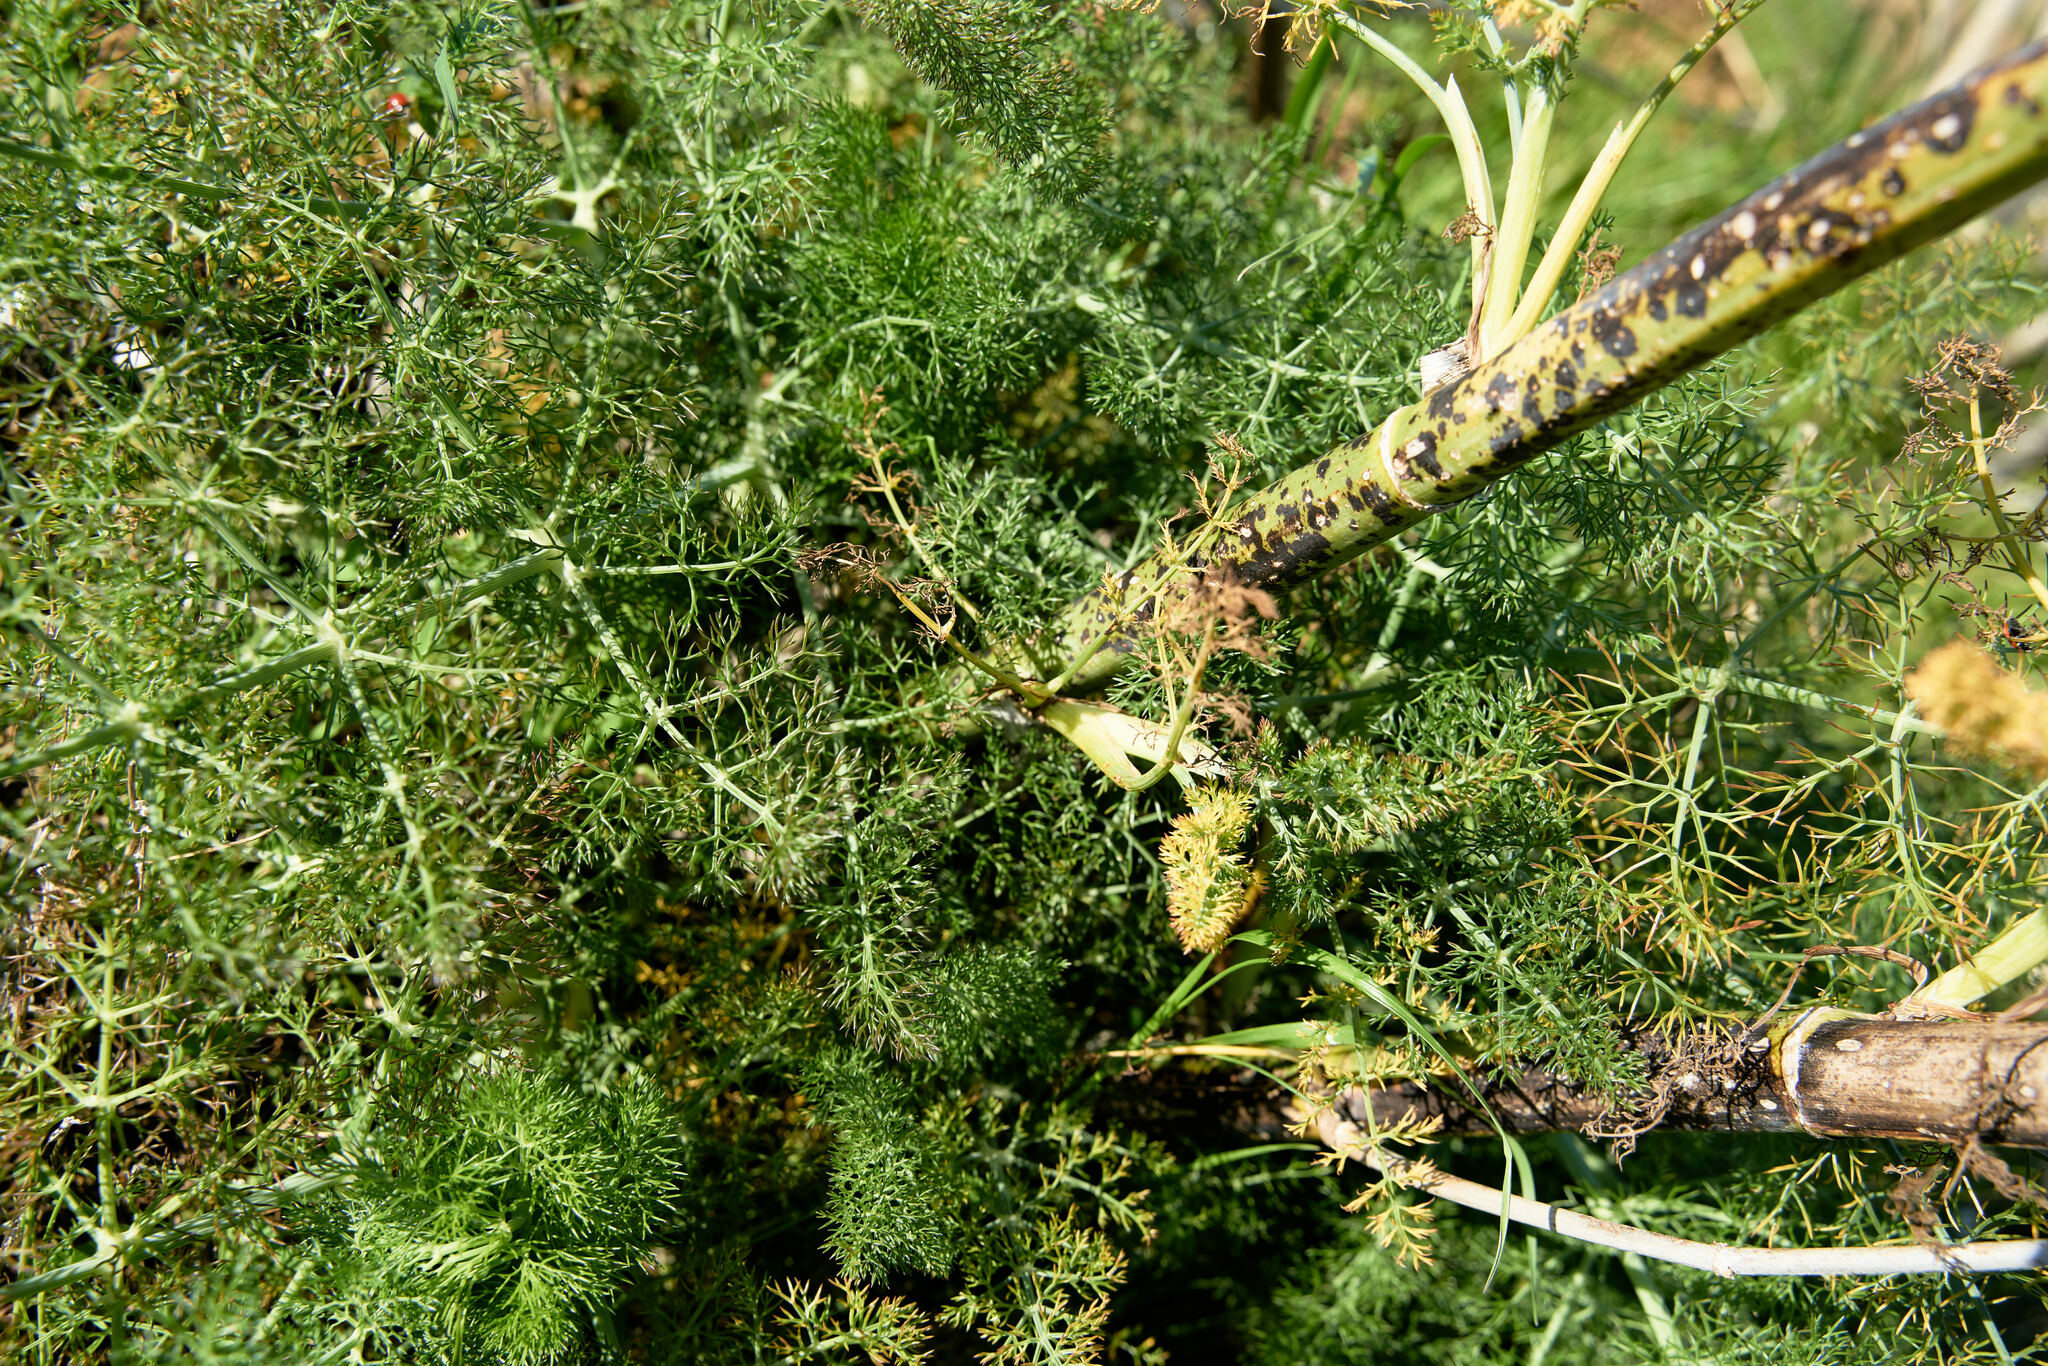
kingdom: Plantae
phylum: Tracheophyta
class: Magnoliopsida
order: Apiales
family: Apiaceae
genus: Foeniculum
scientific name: Foeniculum vulgare
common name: Fennel
